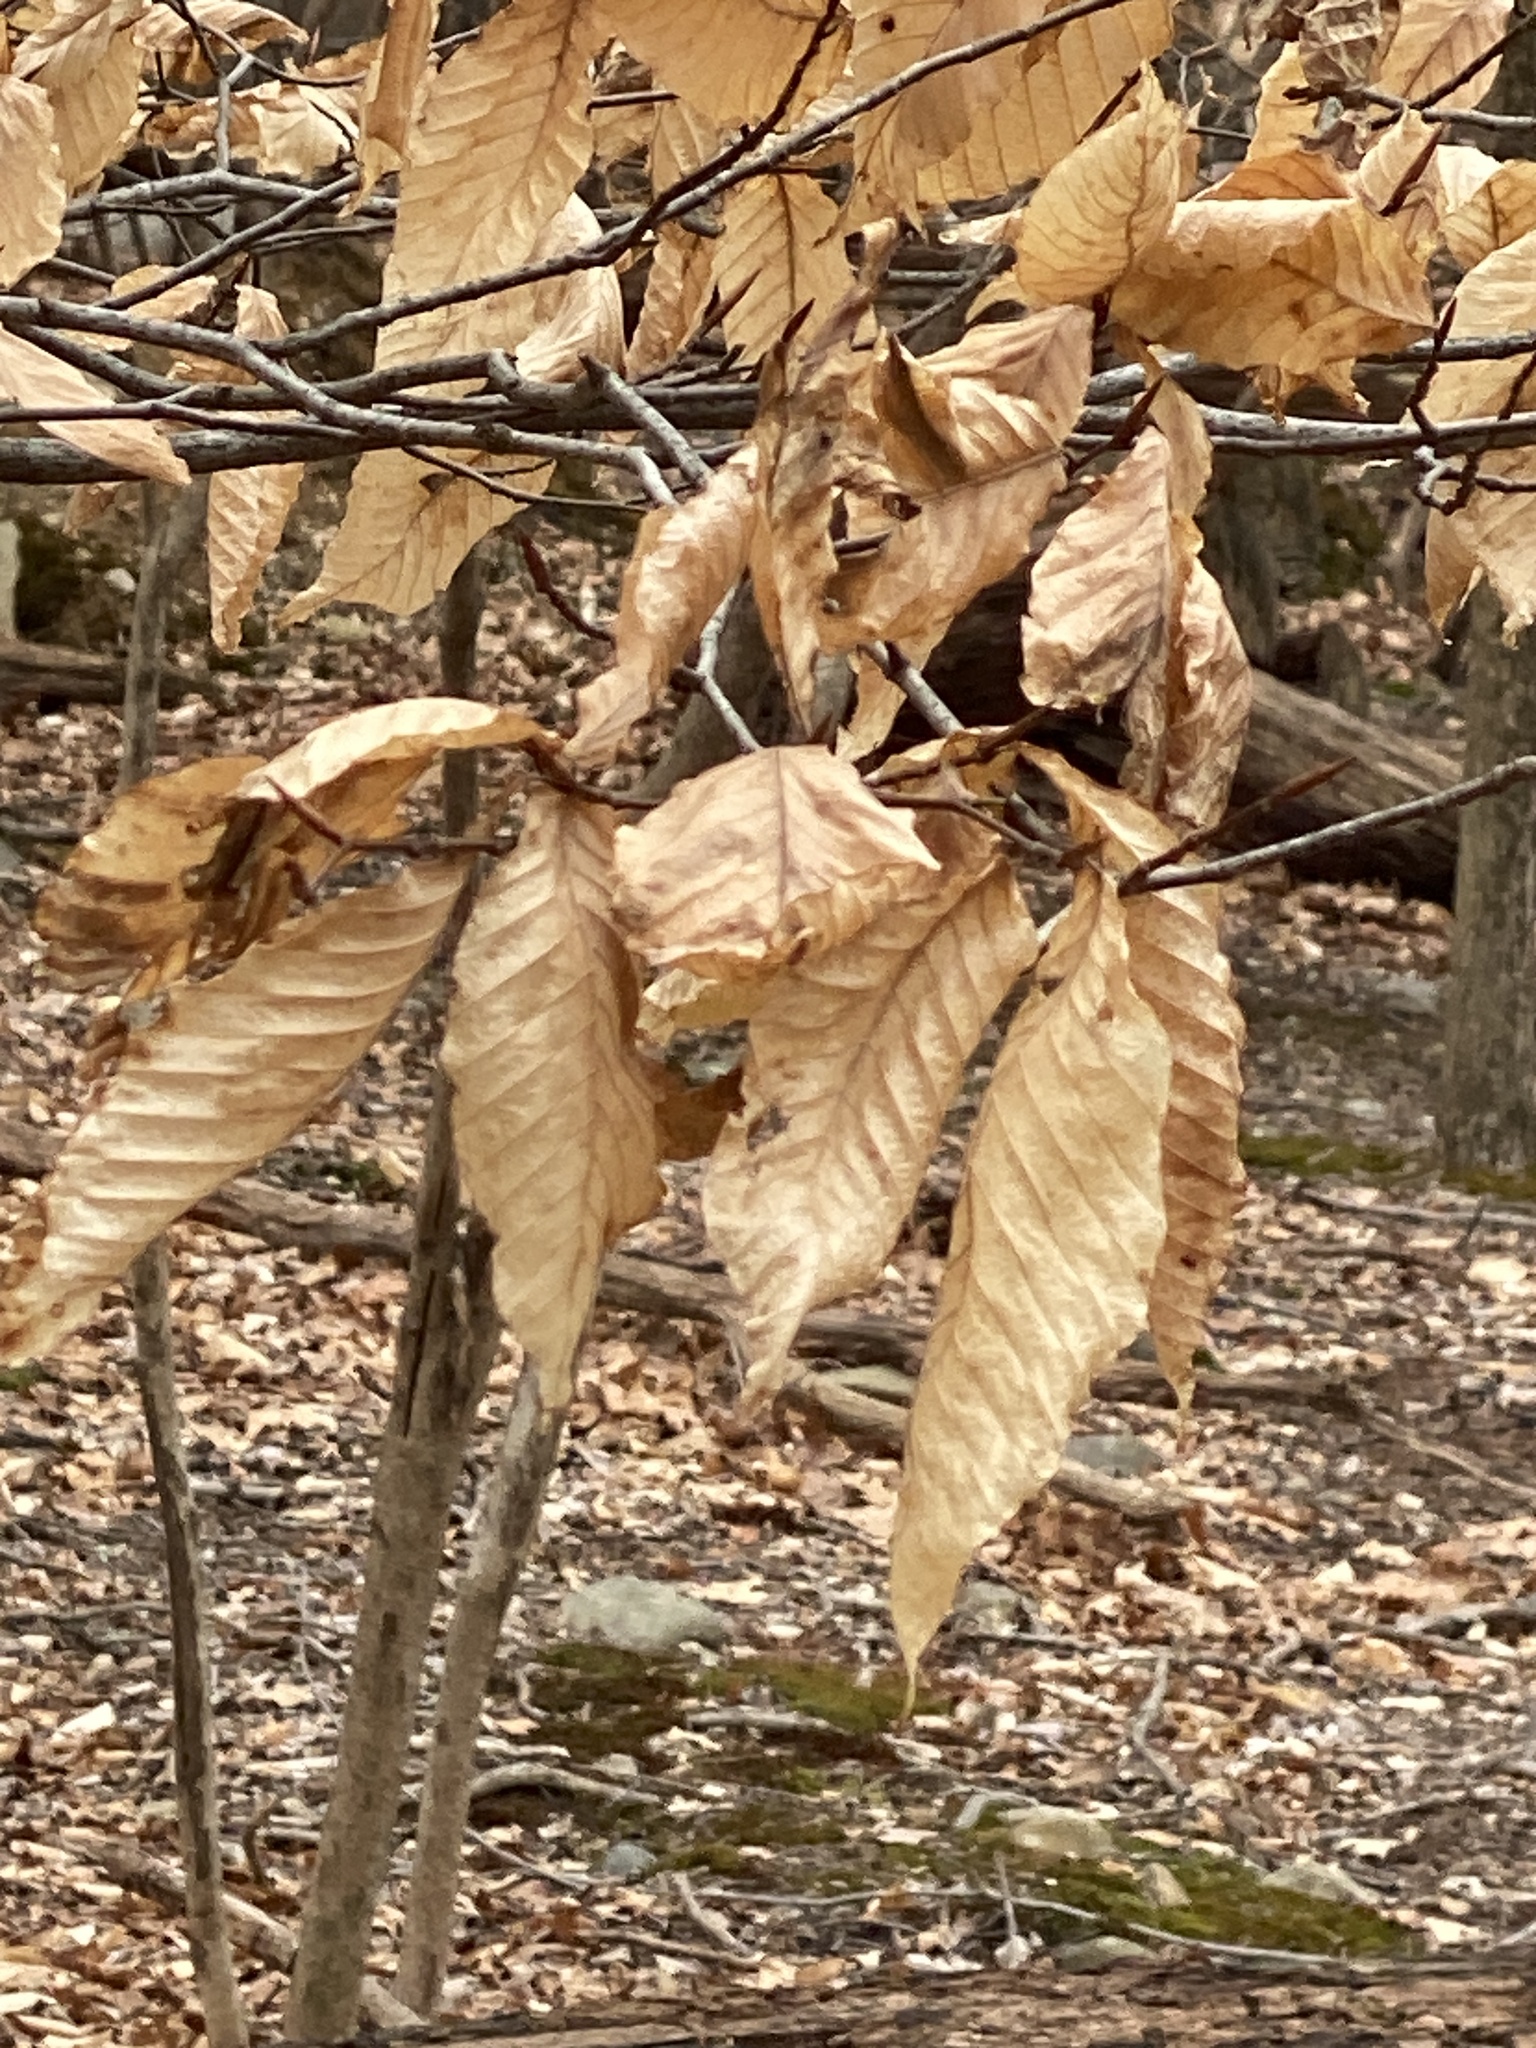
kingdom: Plantae
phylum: Tracheophyta
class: Magnoliopsida
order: Fagales
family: Fagaceae
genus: Fagus
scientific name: Fagus grandifolia
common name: American beech
